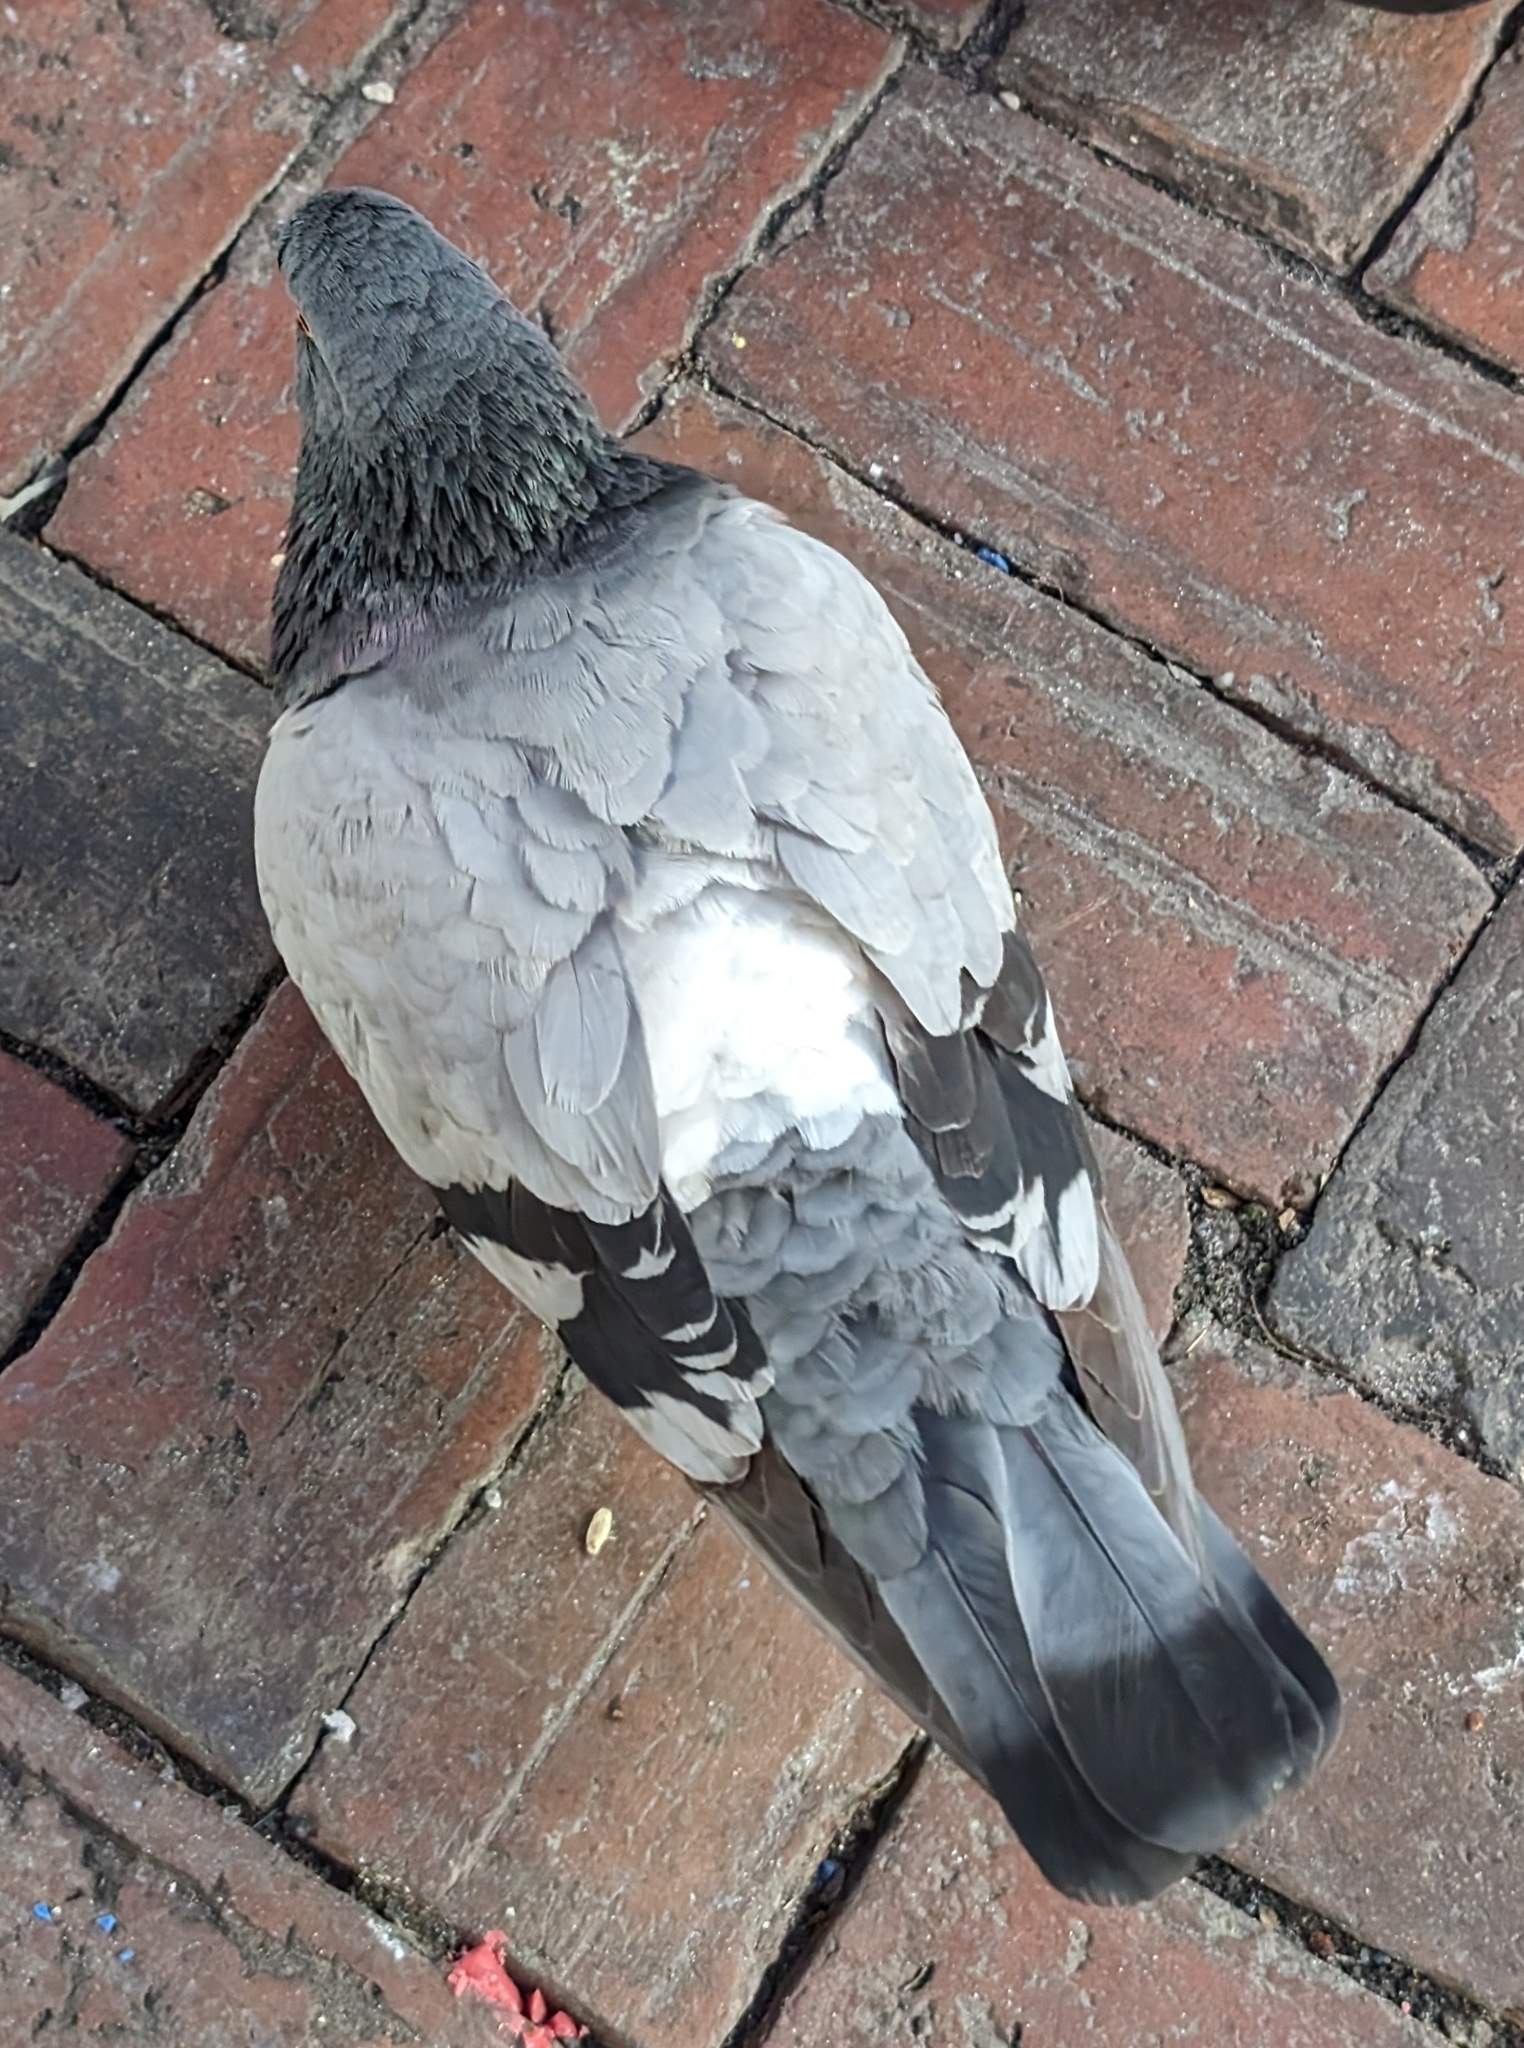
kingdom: Animalia
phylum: Chordata
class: Aves
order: Columbiformes
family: Columbidae
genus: Columba
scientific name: Columba livia
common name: Rock pigeon
